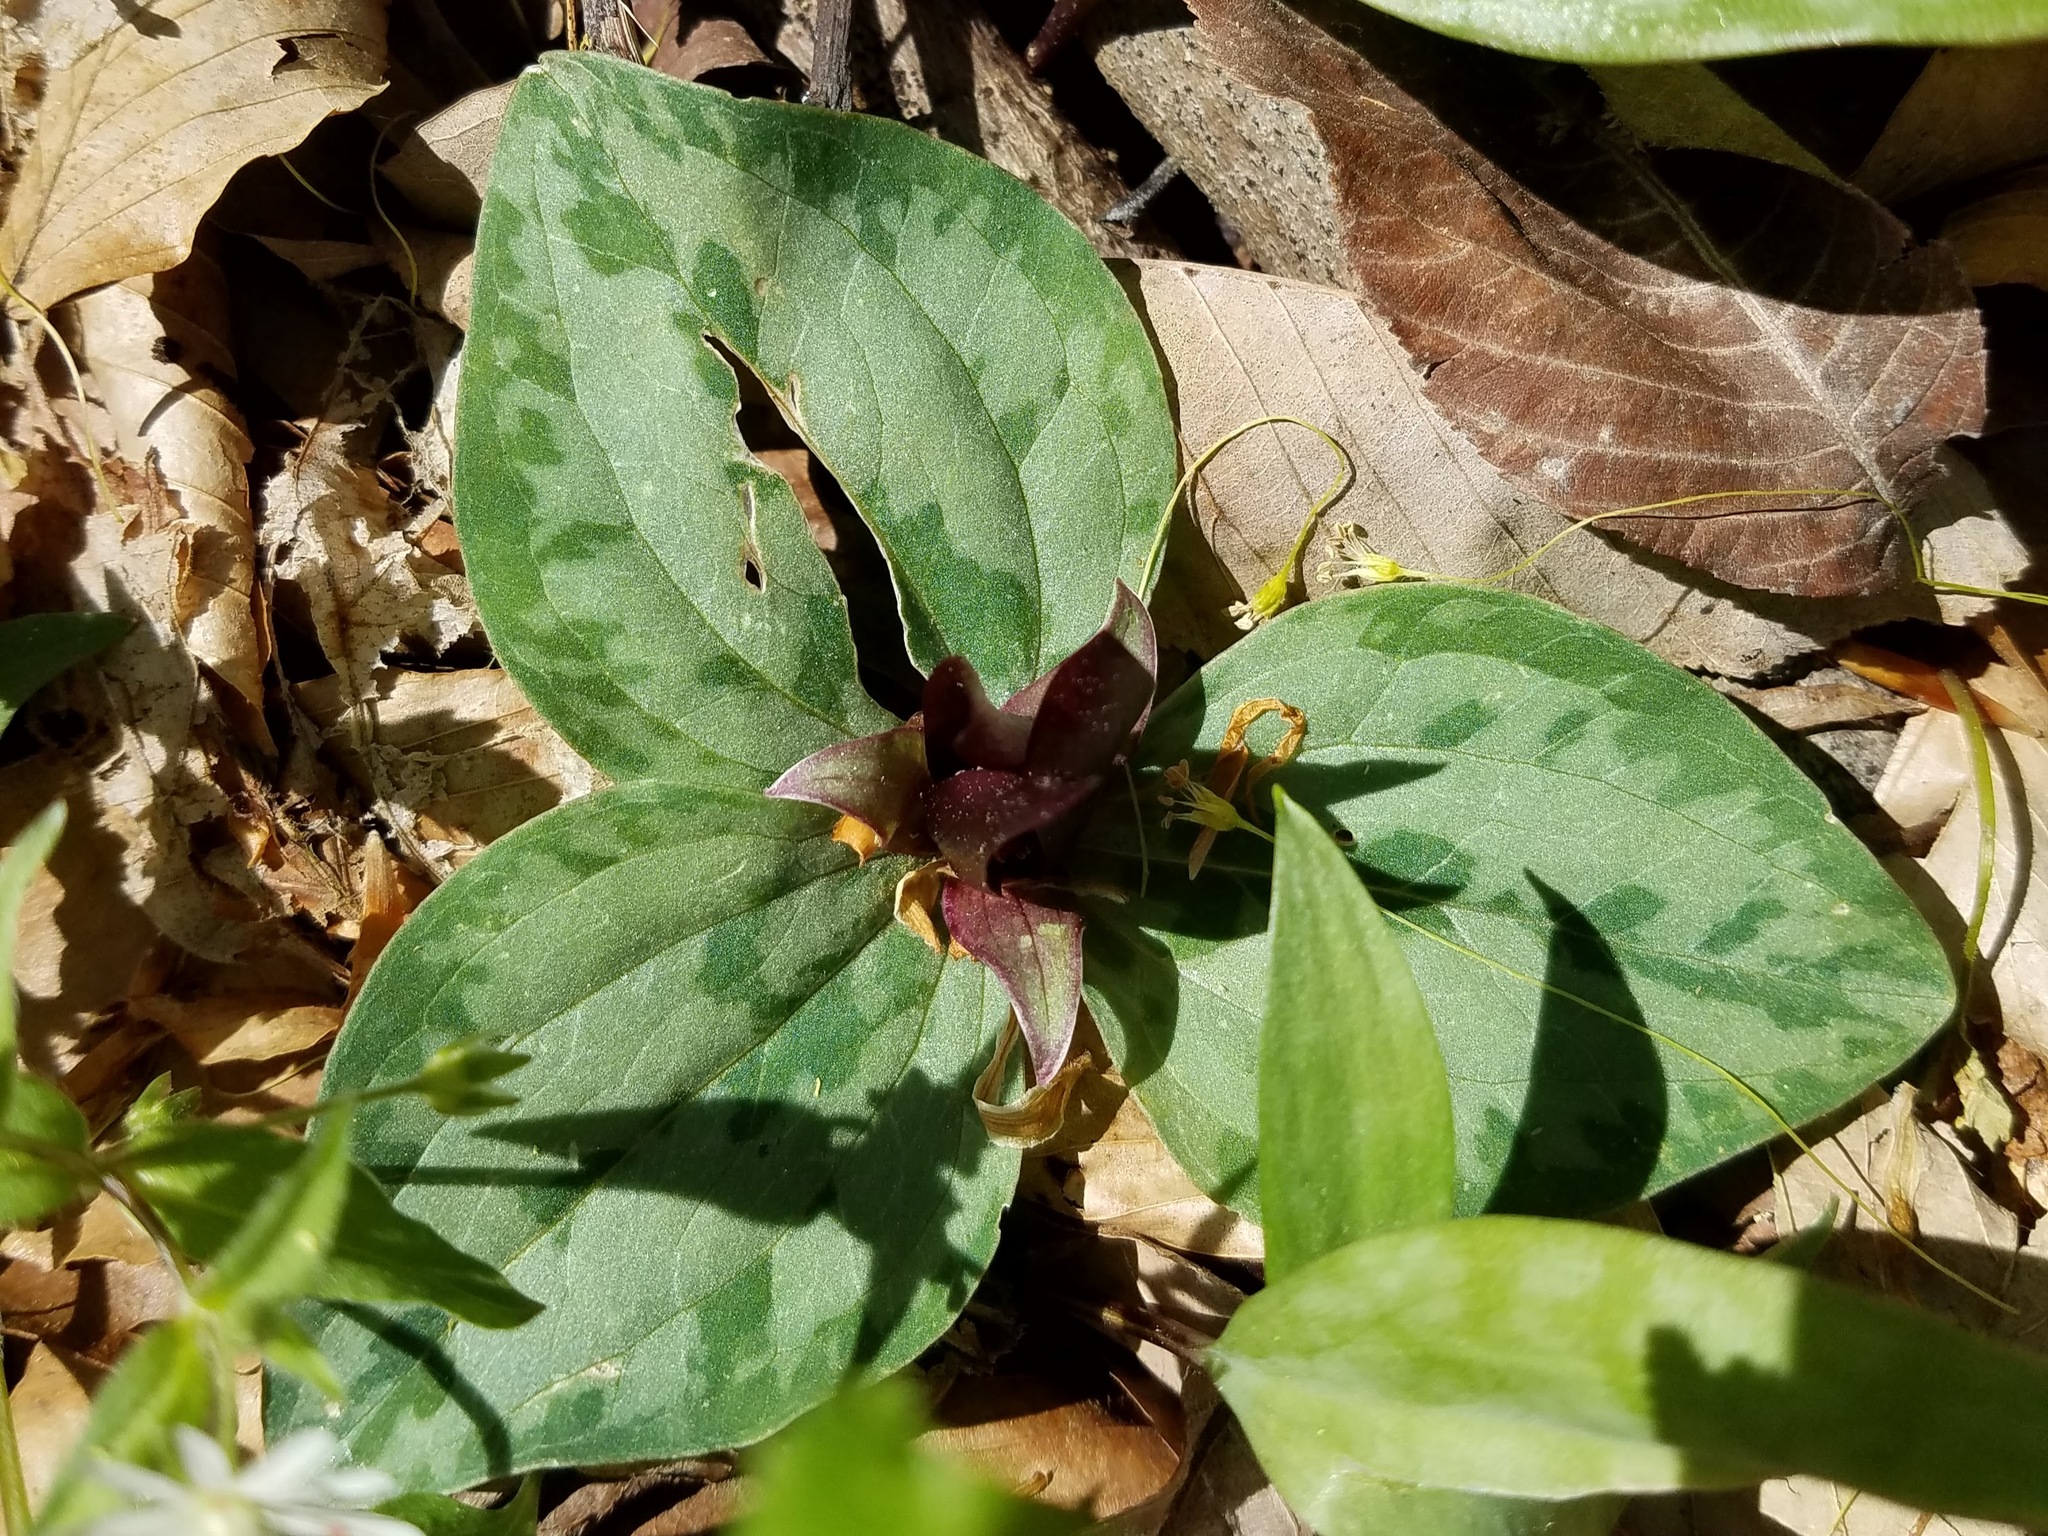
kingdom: Plantae
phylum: Tracheophyta
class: Liliopsida
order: Liliales
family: Melanthiaceae
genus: Trillium
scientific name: Trillium decumbens
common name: Decumbent trillium
